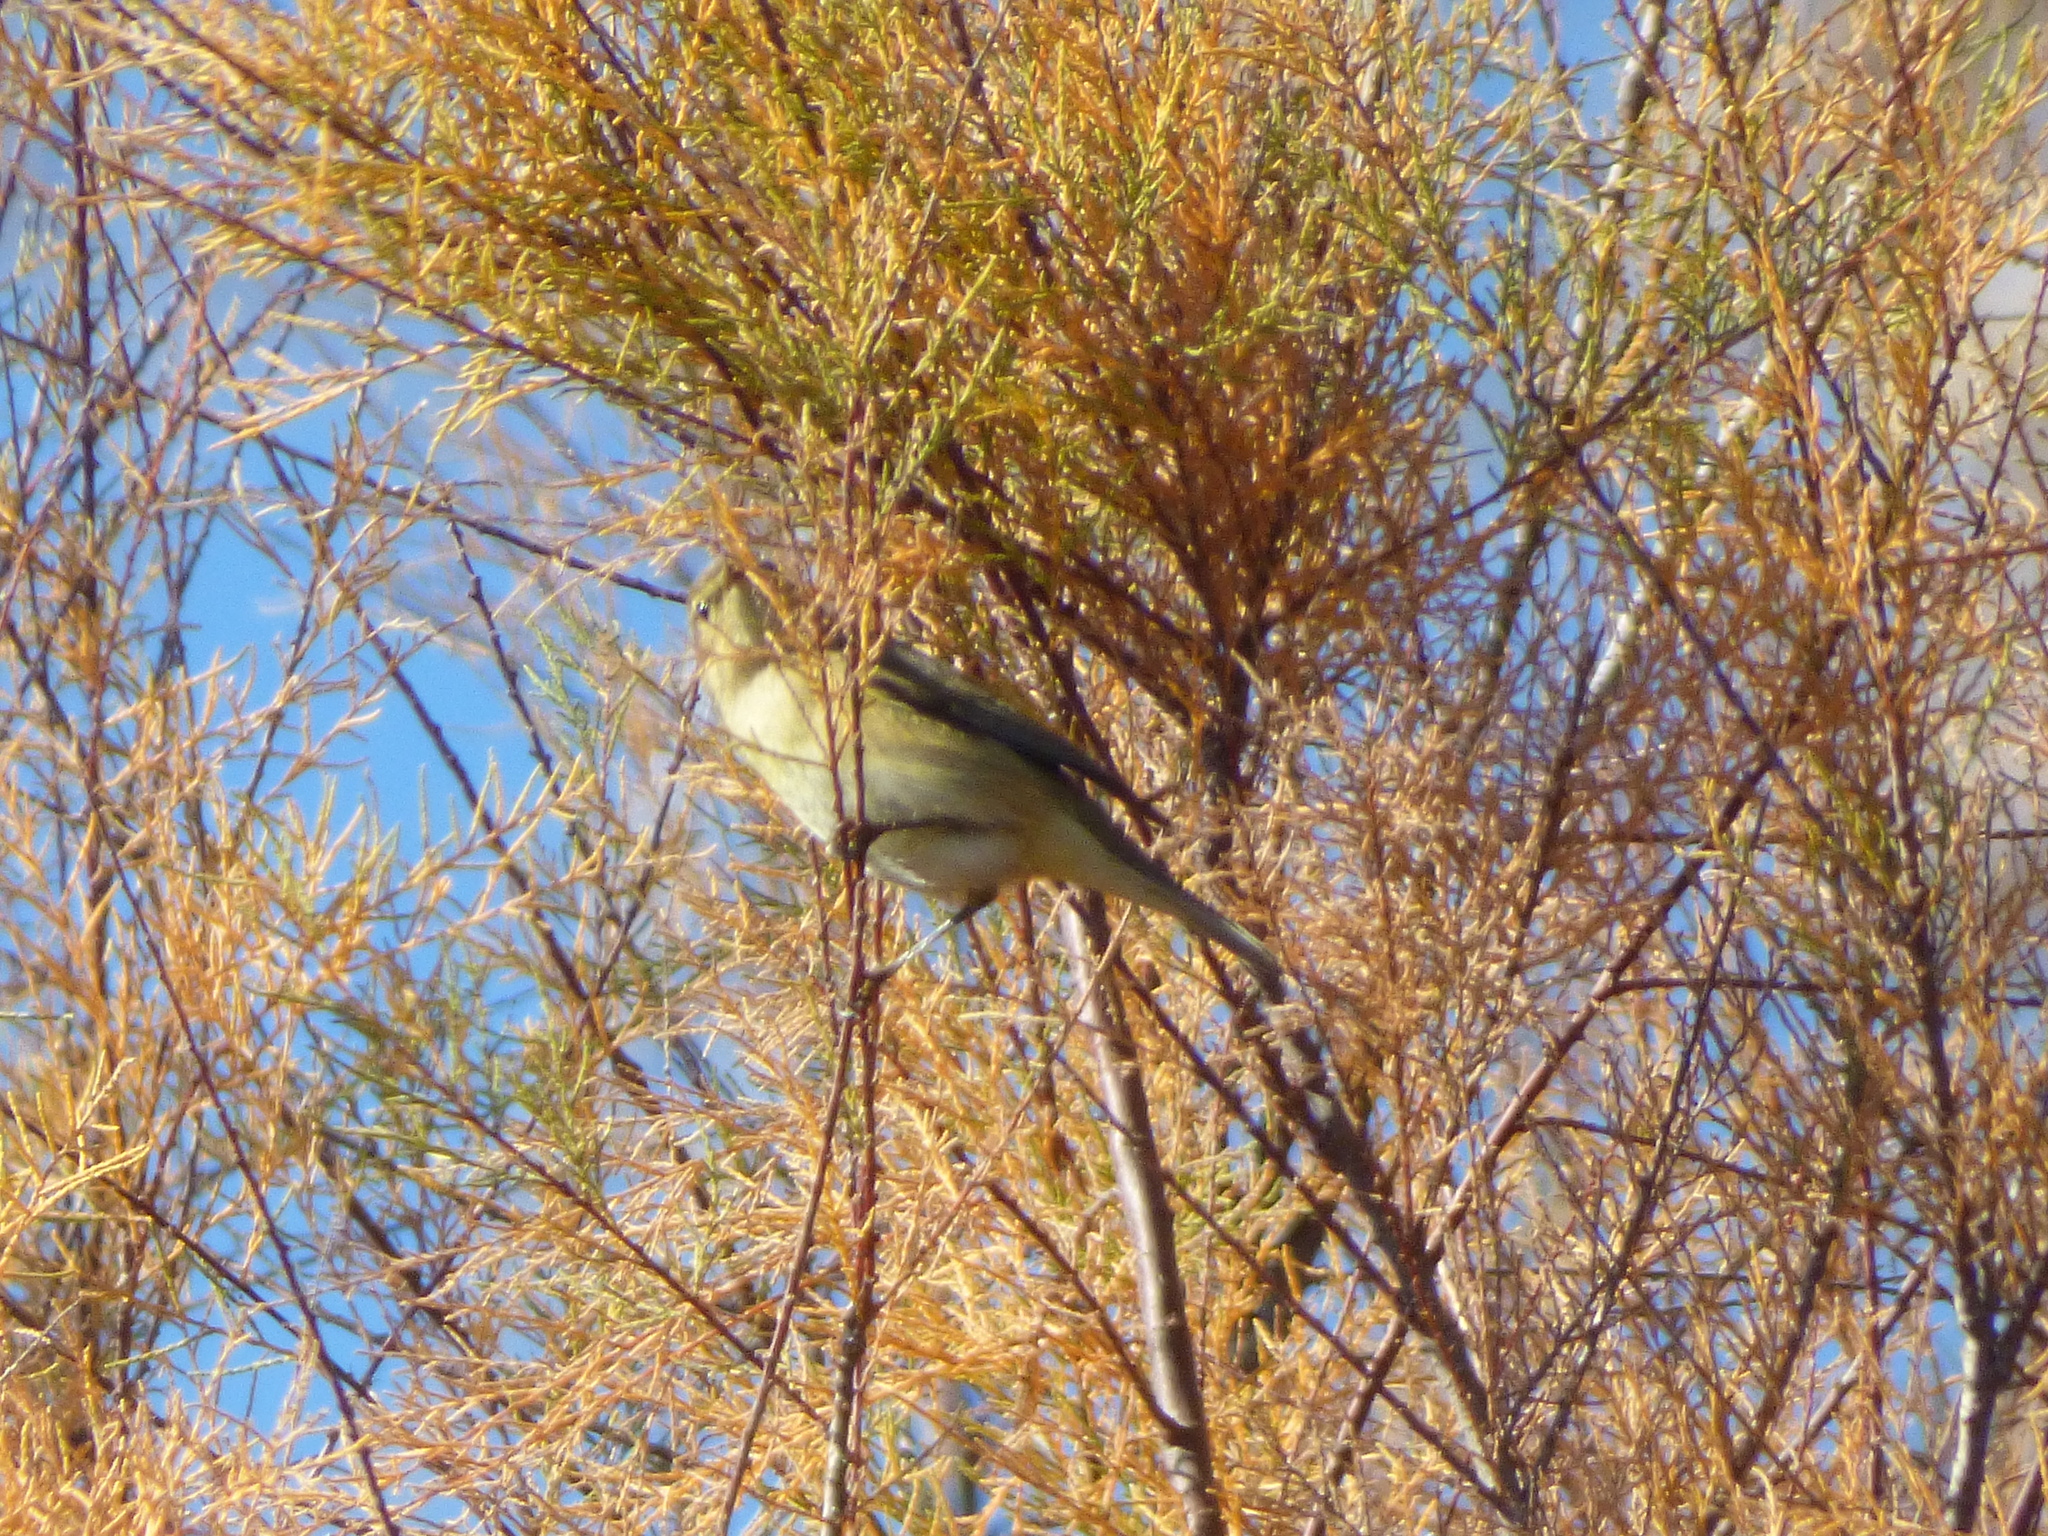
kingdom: Animalia
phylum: Chordata
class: Aves
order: Passeriformes
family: Phylloscopidae
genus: Phylloscopus
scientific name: Phylloscopus collybita
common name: Common chiffchaff
